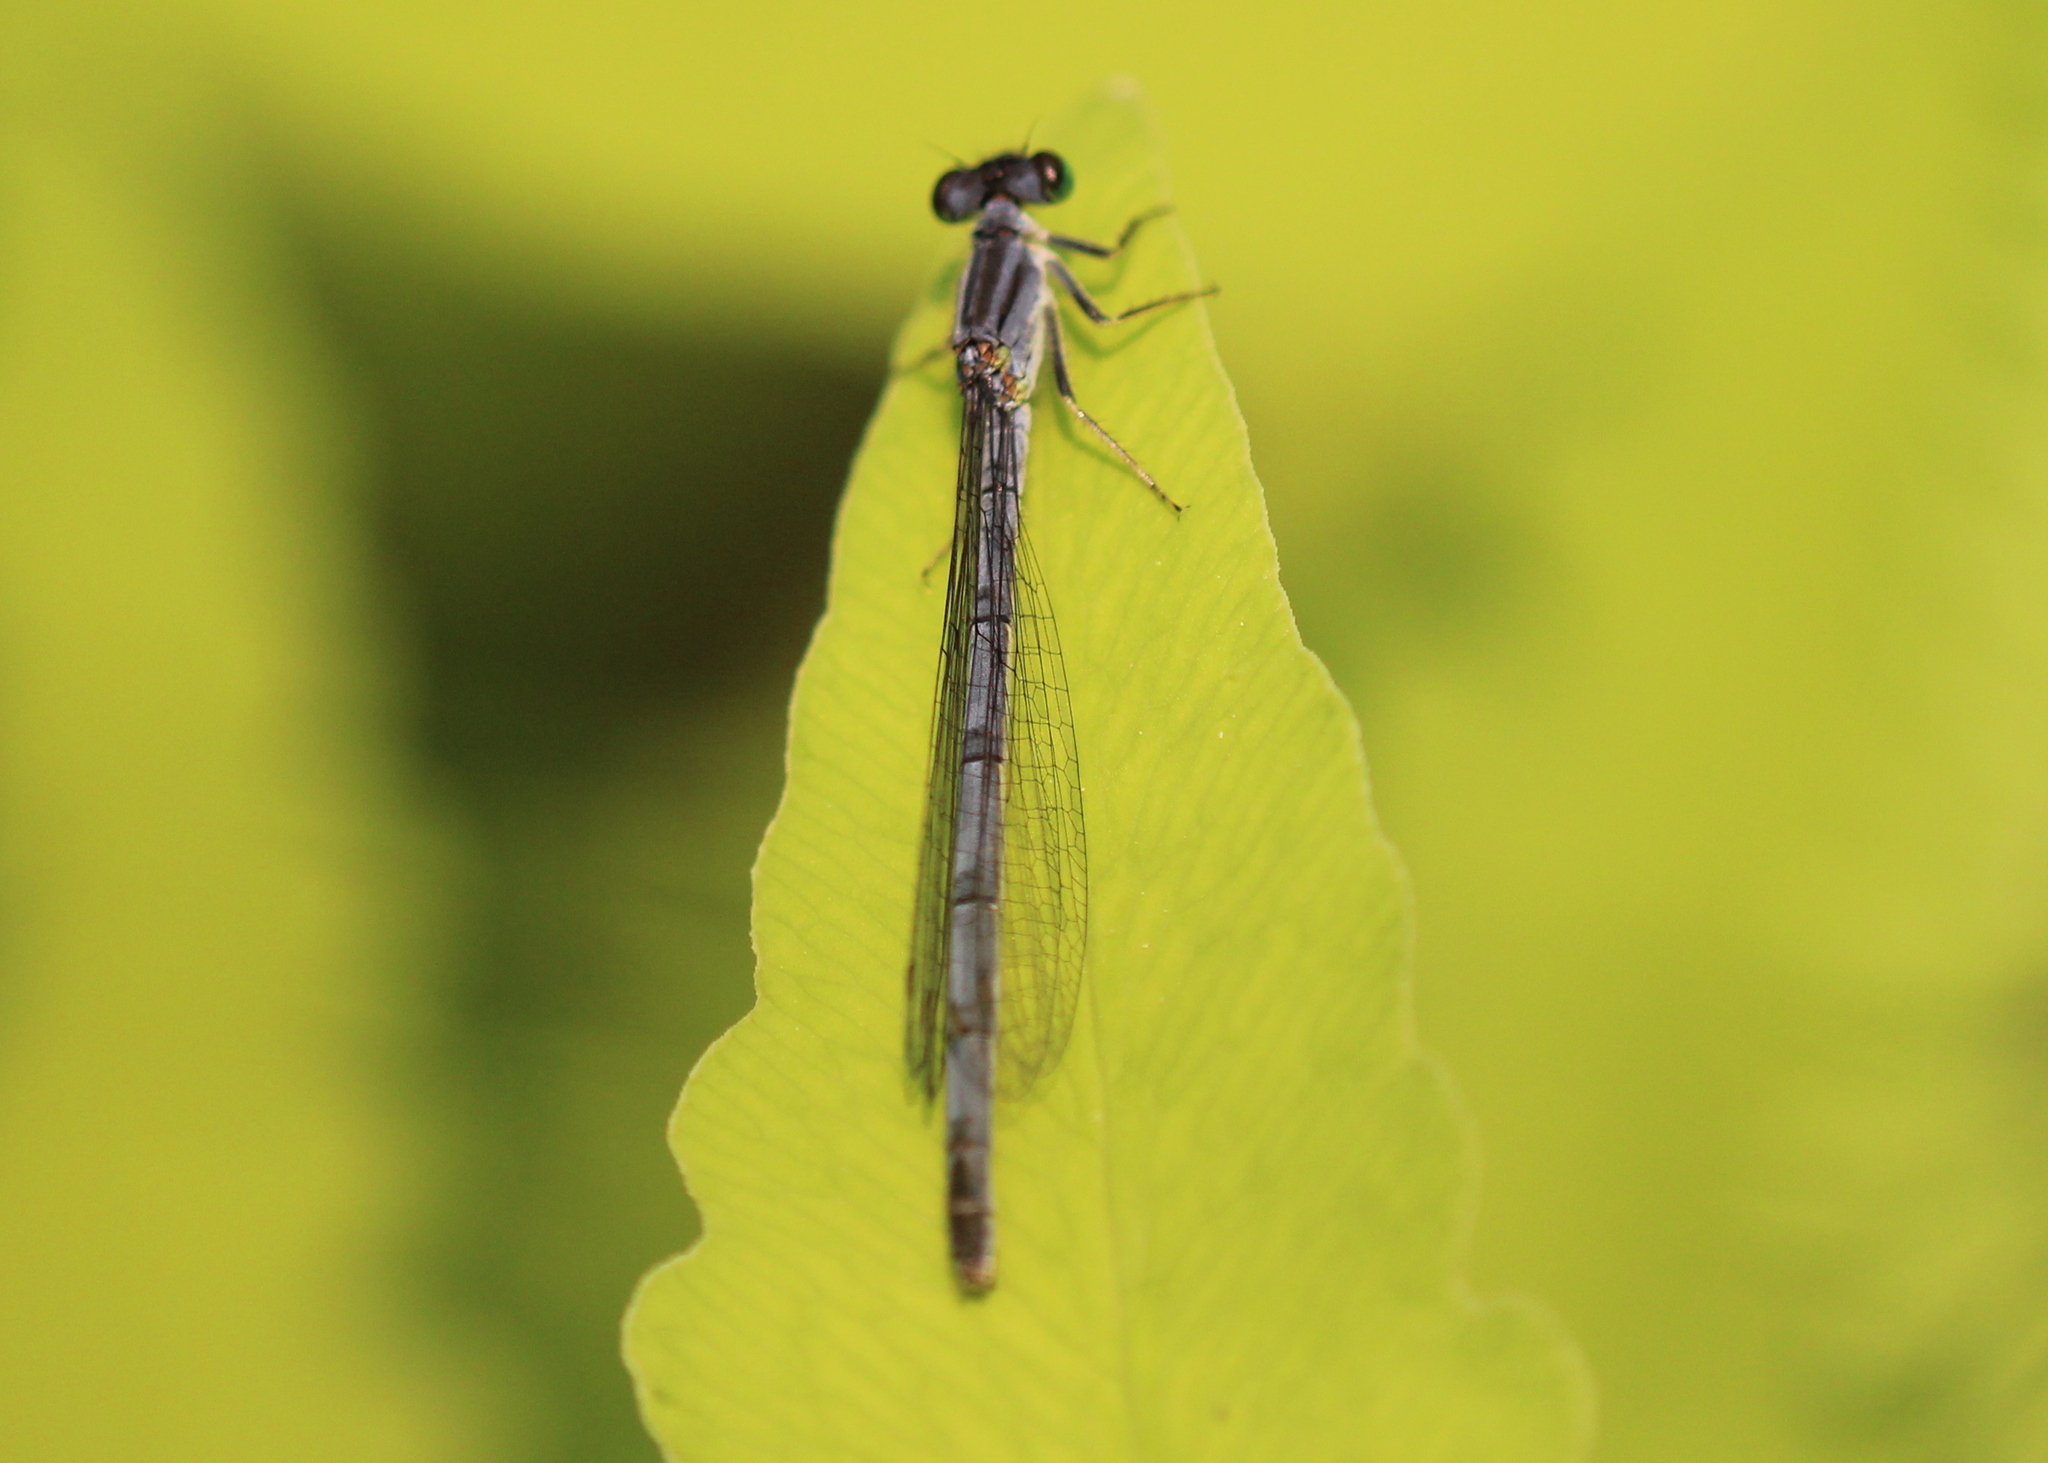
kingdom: Animalia
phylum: Arthropoda
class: Insecta
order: Odonata
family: Coenagrionidae
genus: Ischnura
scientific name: Ischnura verticalis
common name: Eastern forktail
